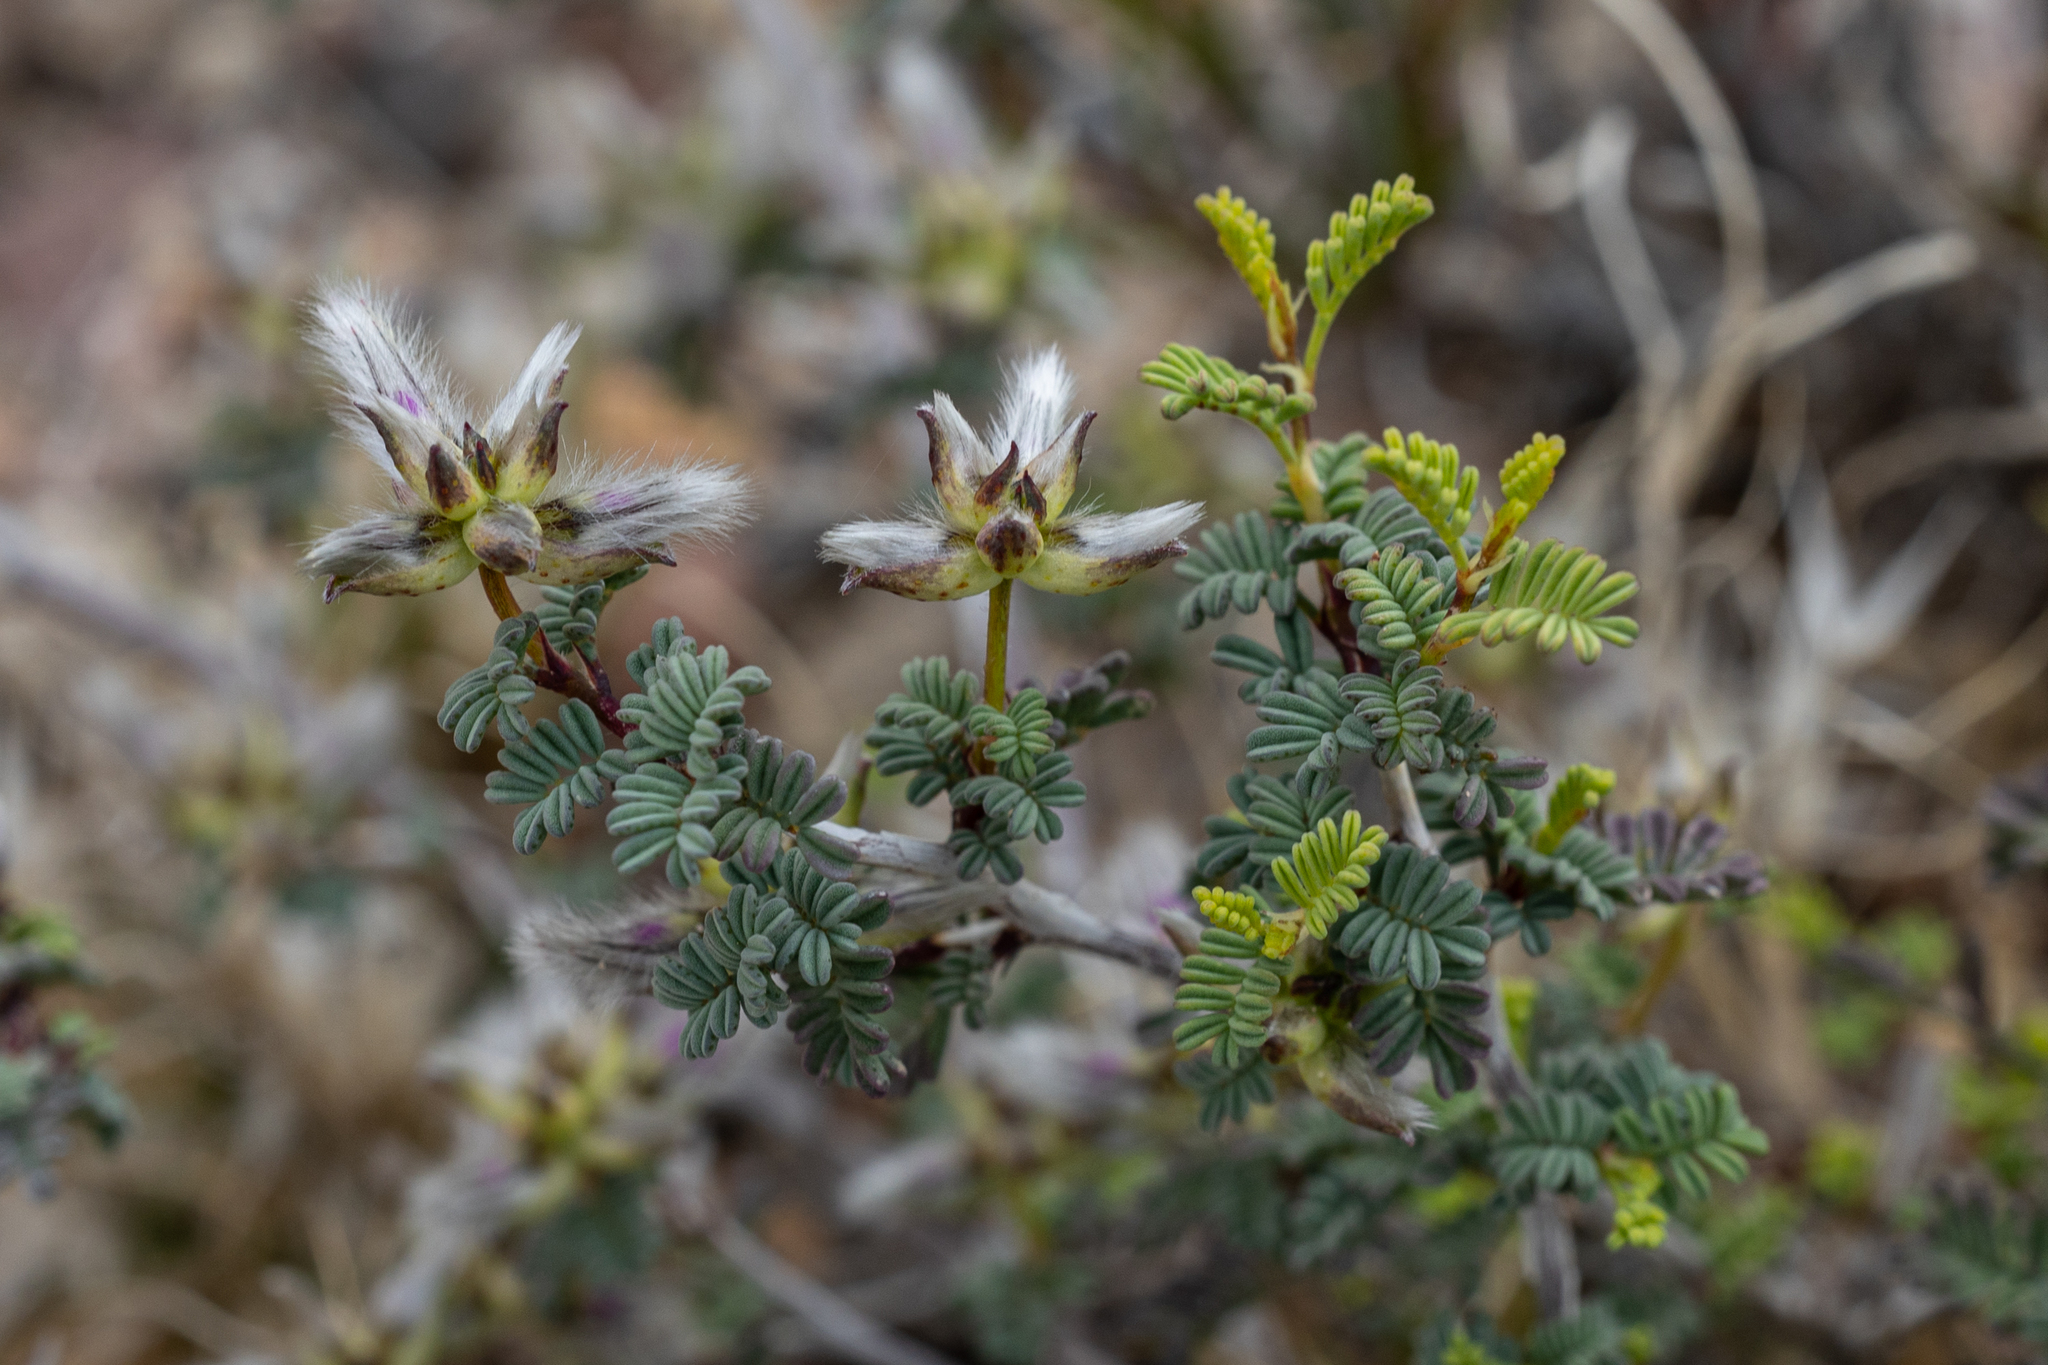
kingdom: Plantae
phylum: Tracheophyta
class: Magnoliopsida
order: Fabales
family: Fabaceae
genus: Dalea
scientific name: Dalea formosa
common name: Feather-plume dalea
